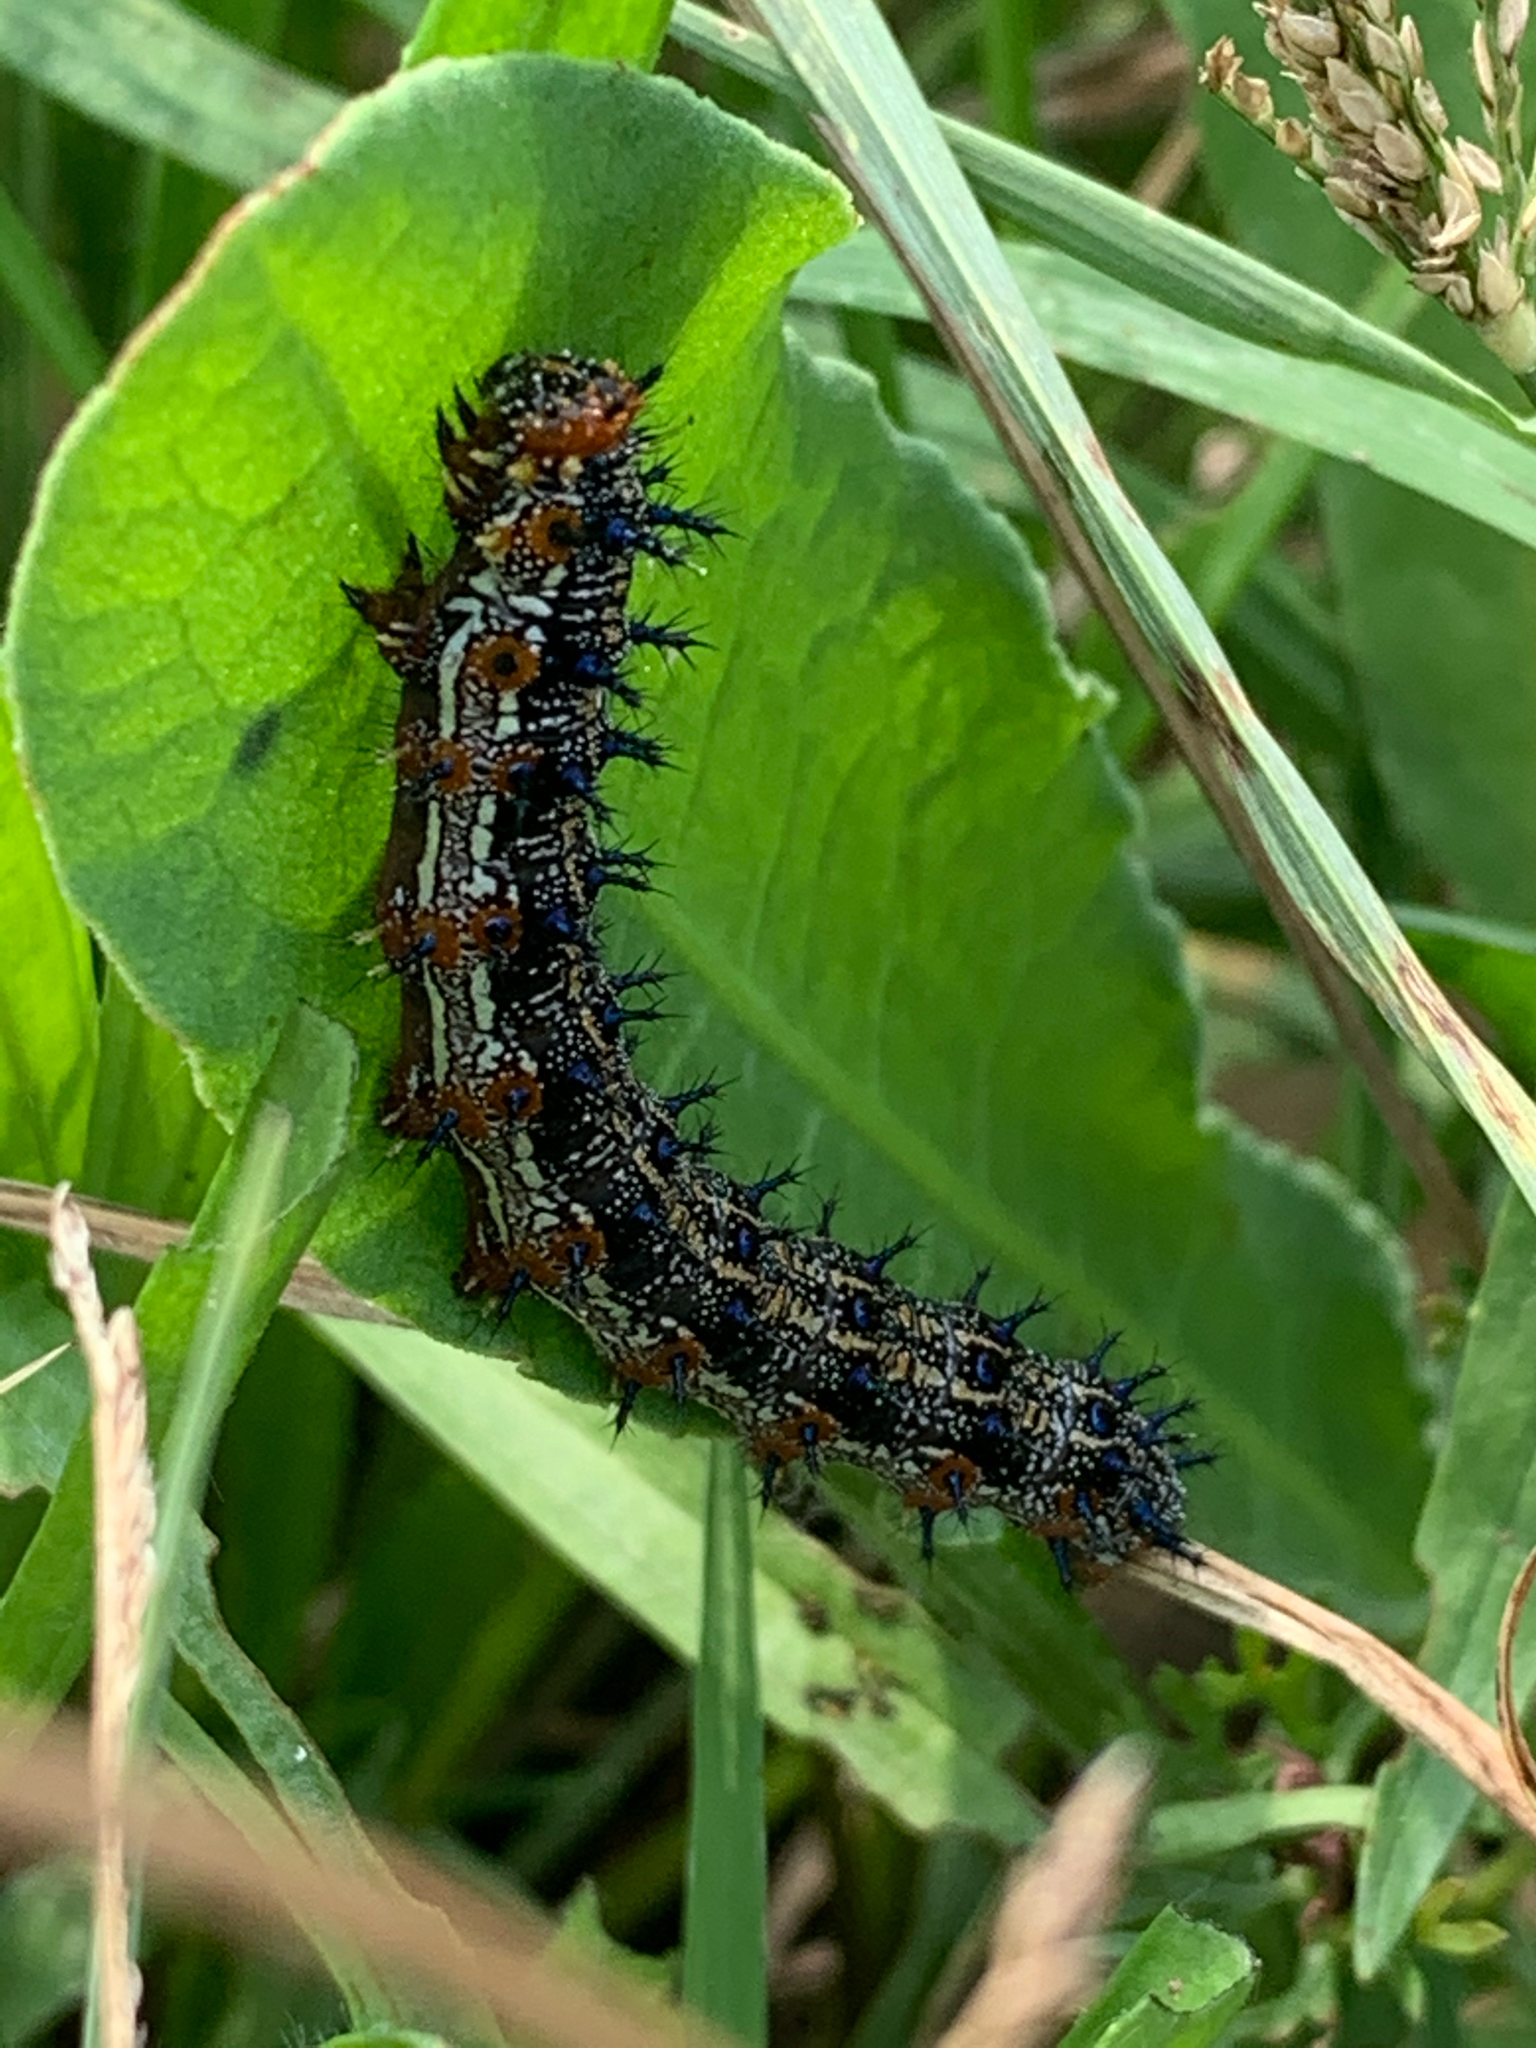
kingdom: Animalia
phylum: Arthropoda
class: Insecta
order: Lepidoptera
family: Nymphalidae
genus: Junonia
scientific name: Junonia coenia
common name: Common buckeye
